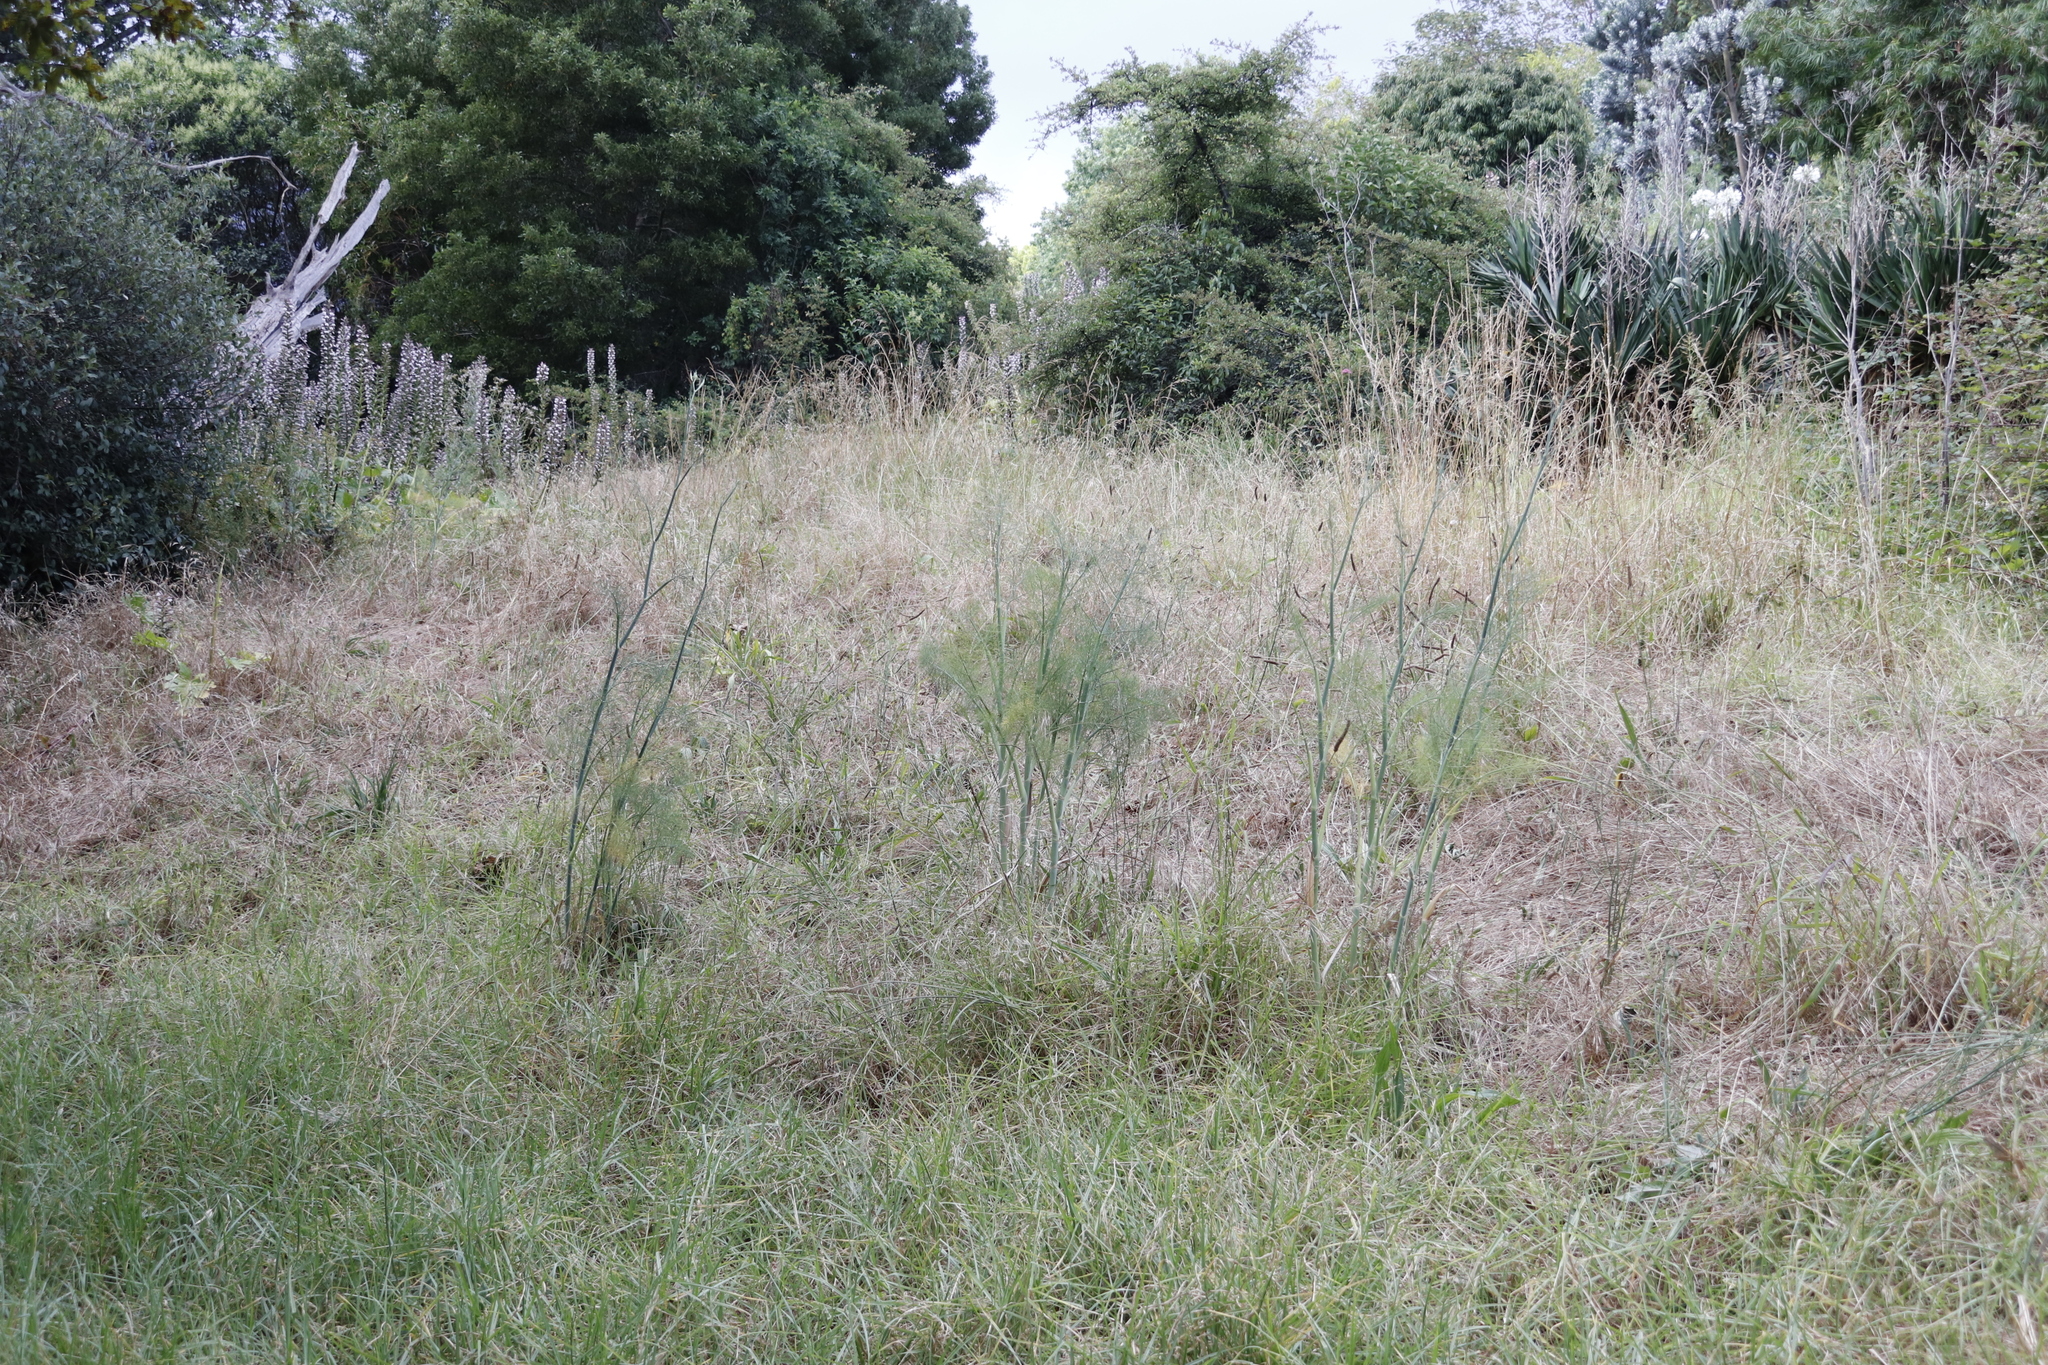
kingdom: Plantae
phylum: Tracheophyta
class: Magnoliopsida
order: Apiales
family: Apiaceae
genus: Foeniculum
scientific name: Foeniculum vulgare
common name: Fennel
